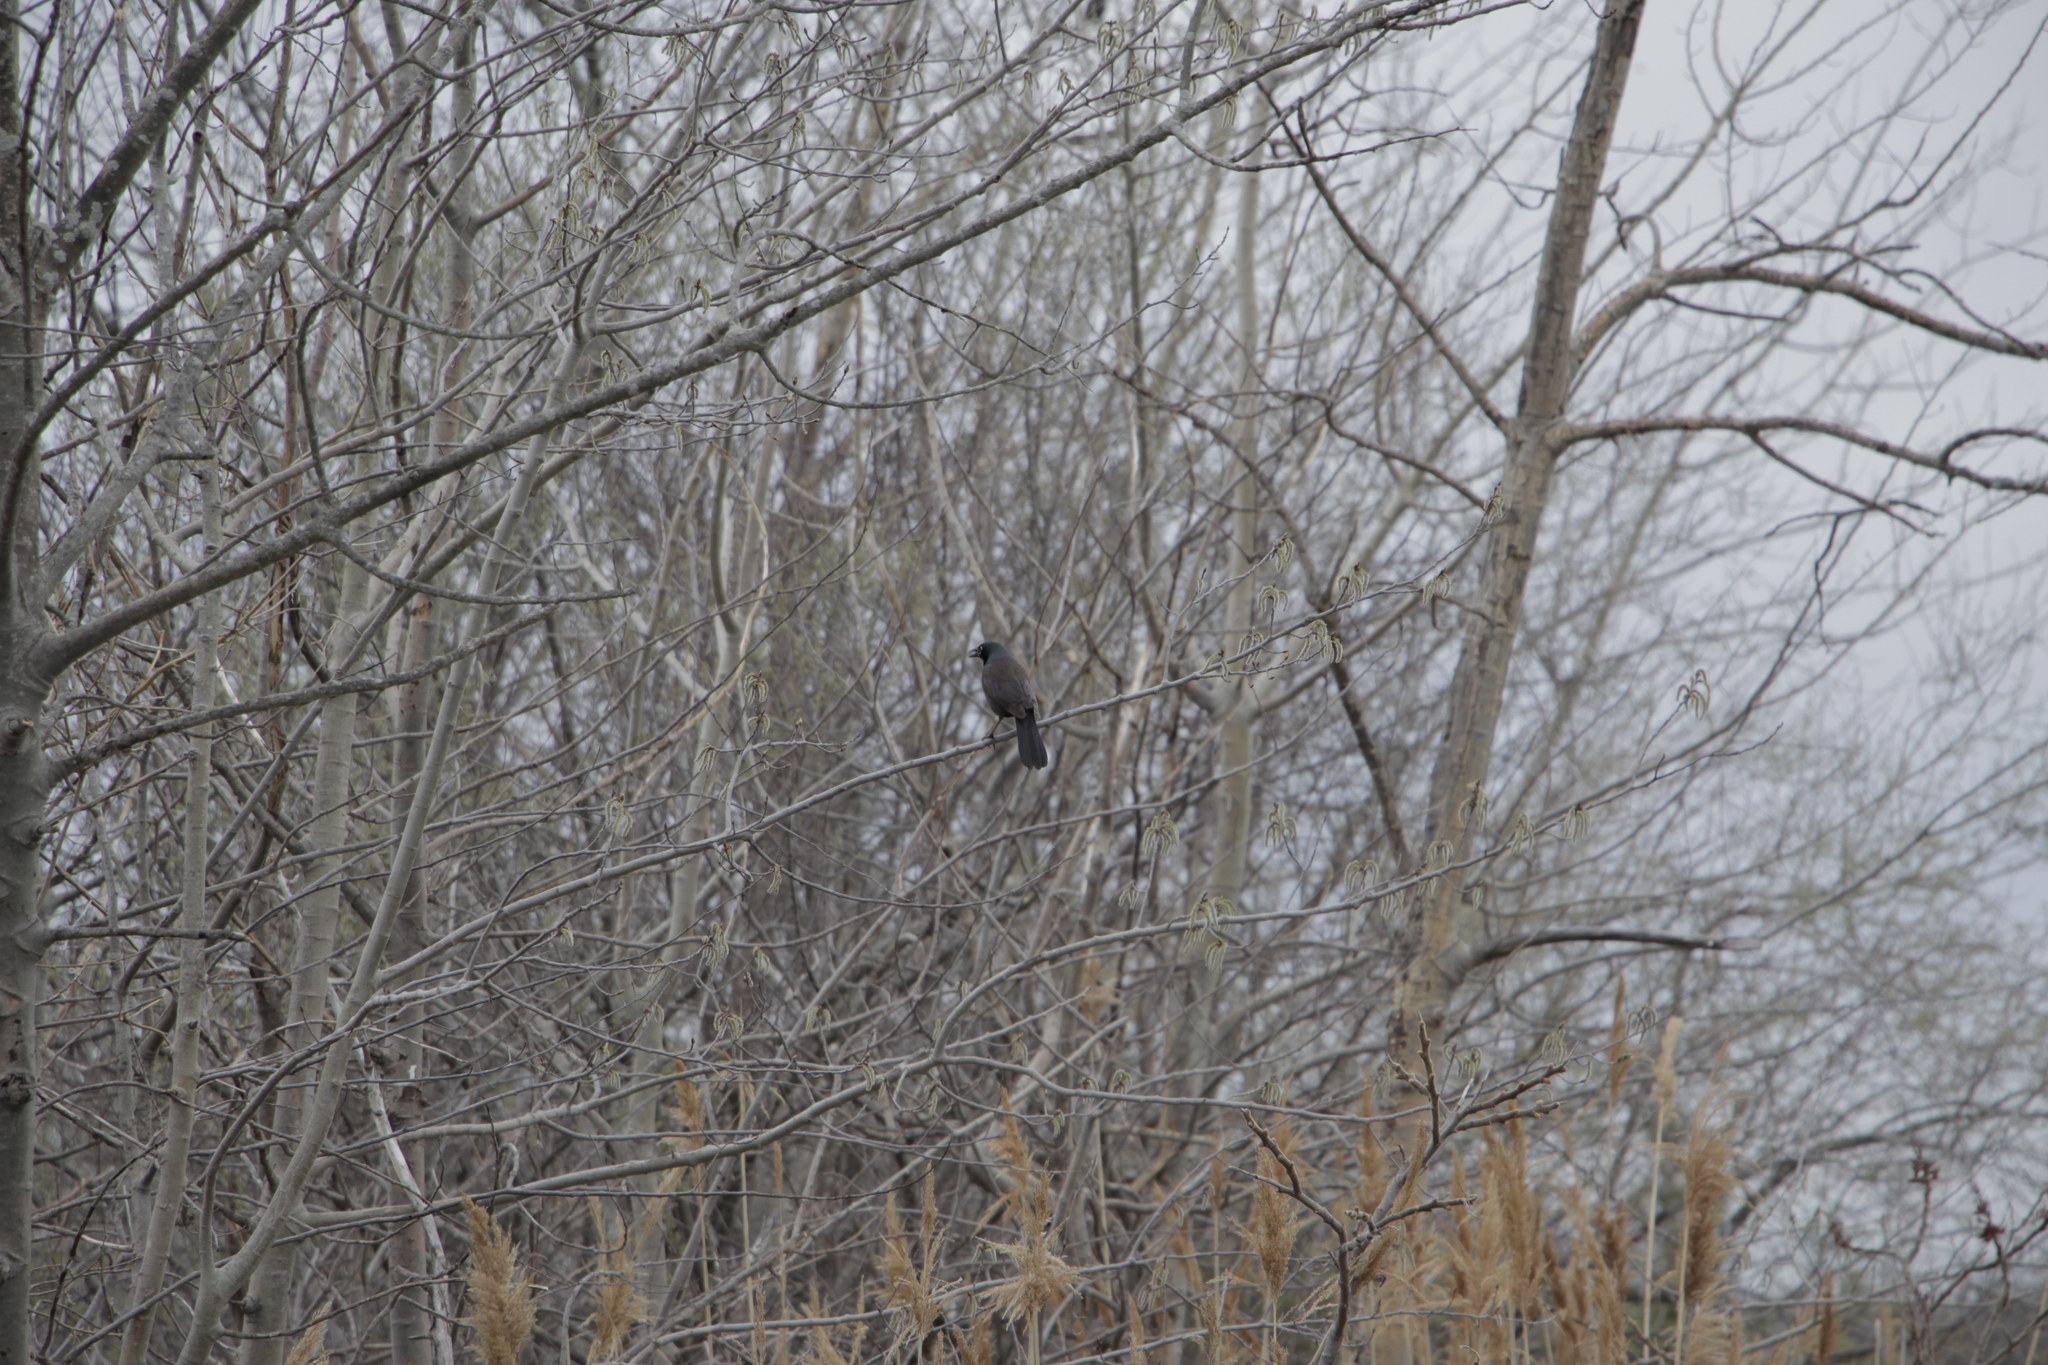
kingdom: Animalia
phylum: Chordata
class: Aves
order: Passeriformes
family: Icteridae
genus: Quiscalus
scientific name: Quiscalus quiscula
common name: Common grackle
